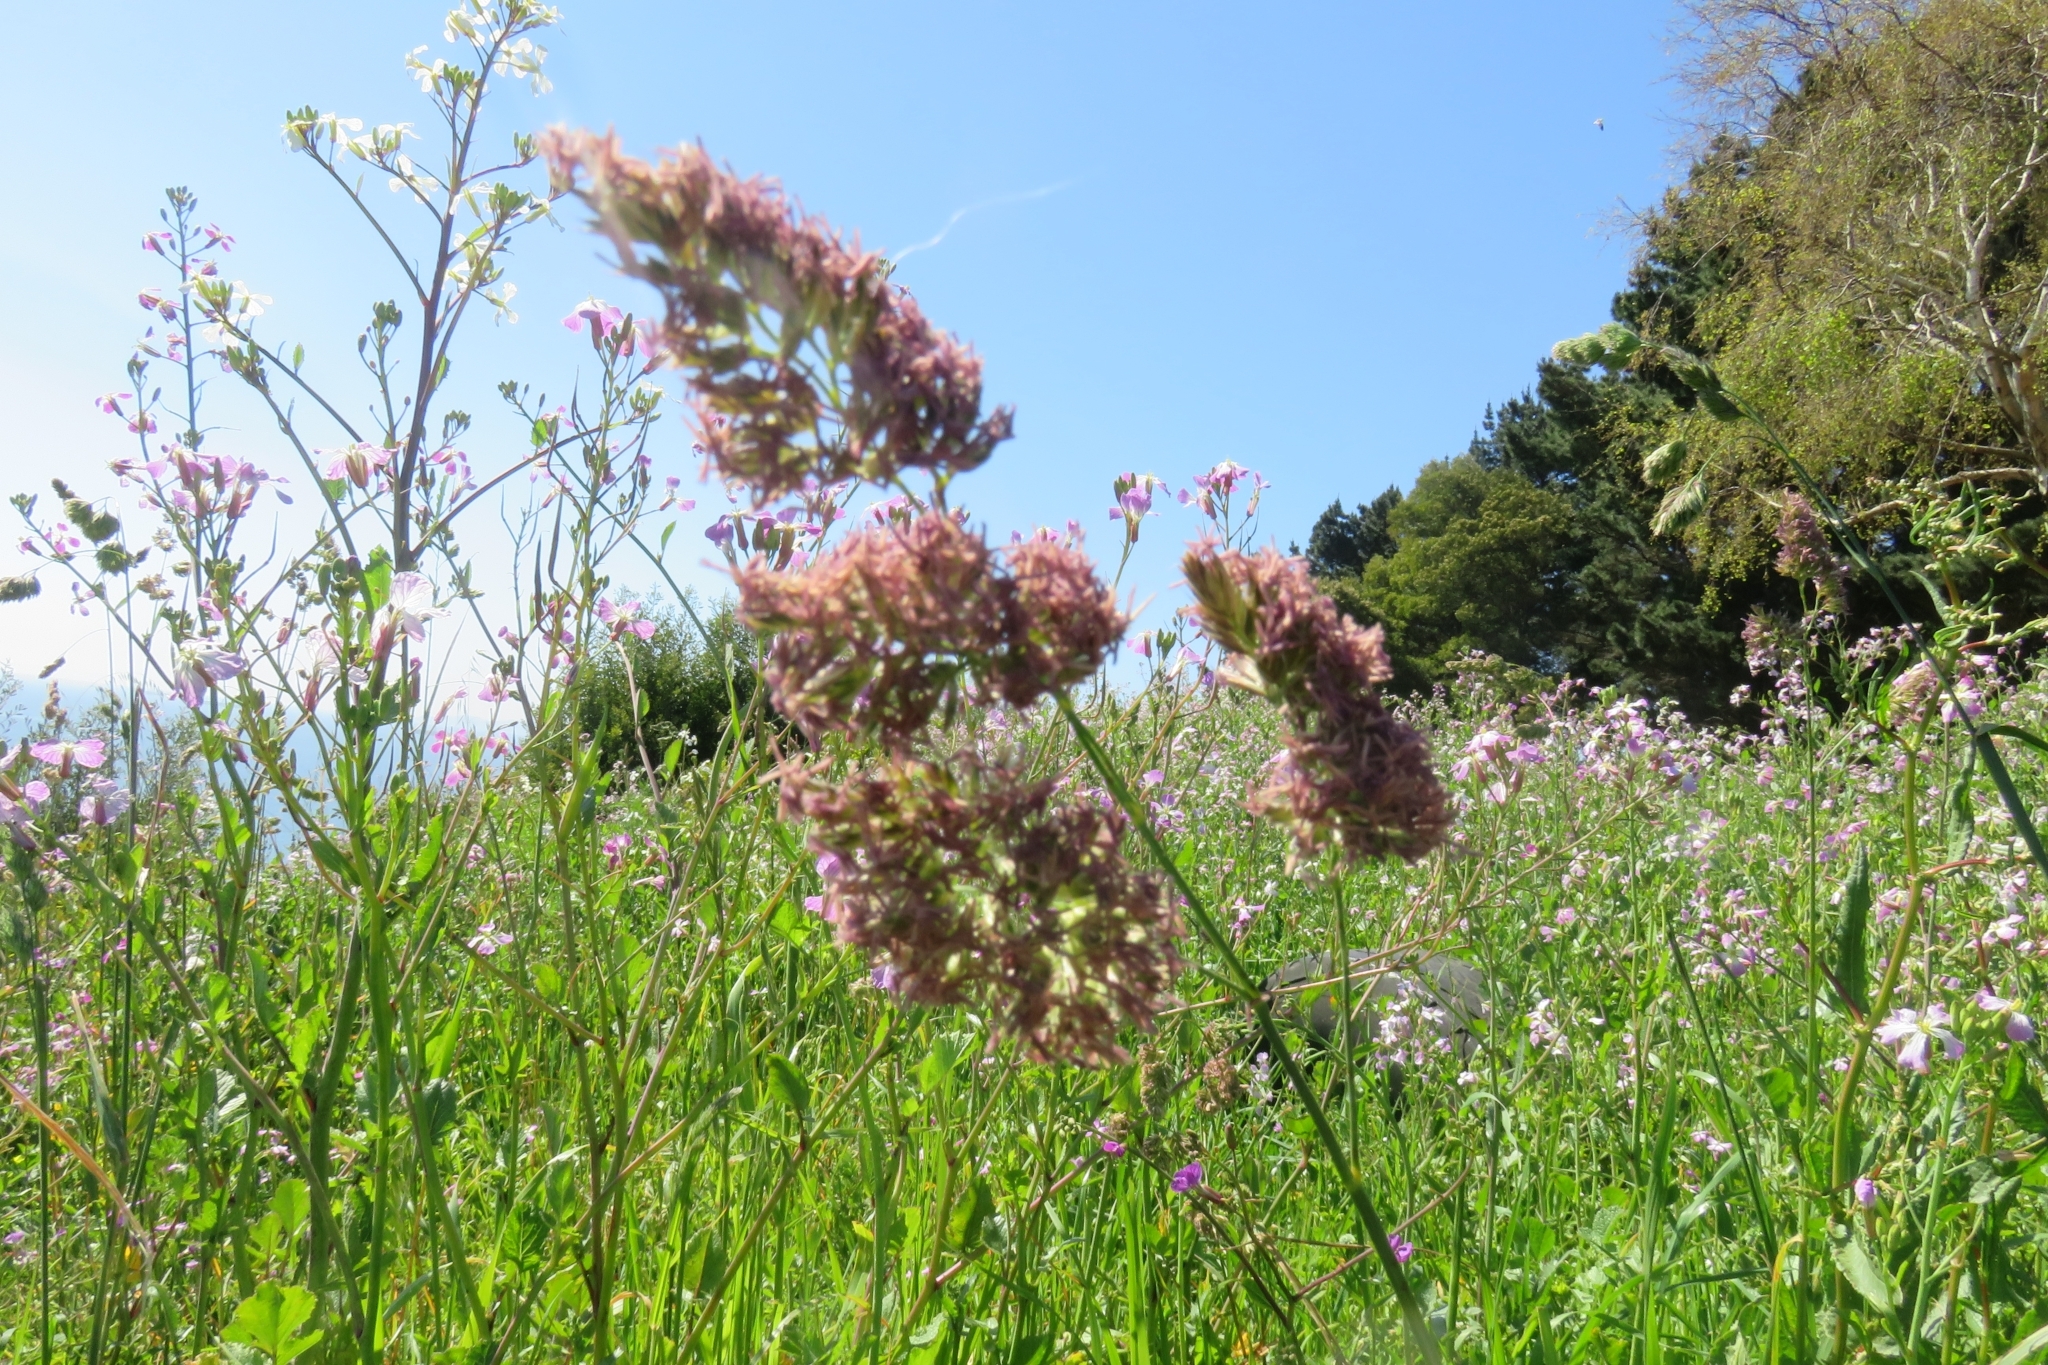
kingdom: Plantae
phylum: Tracheophyta
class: Liliopsida
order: Poales
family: Poaceae
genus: Dactylis
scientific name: Dactylis glomerata
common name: Orchardgrass
